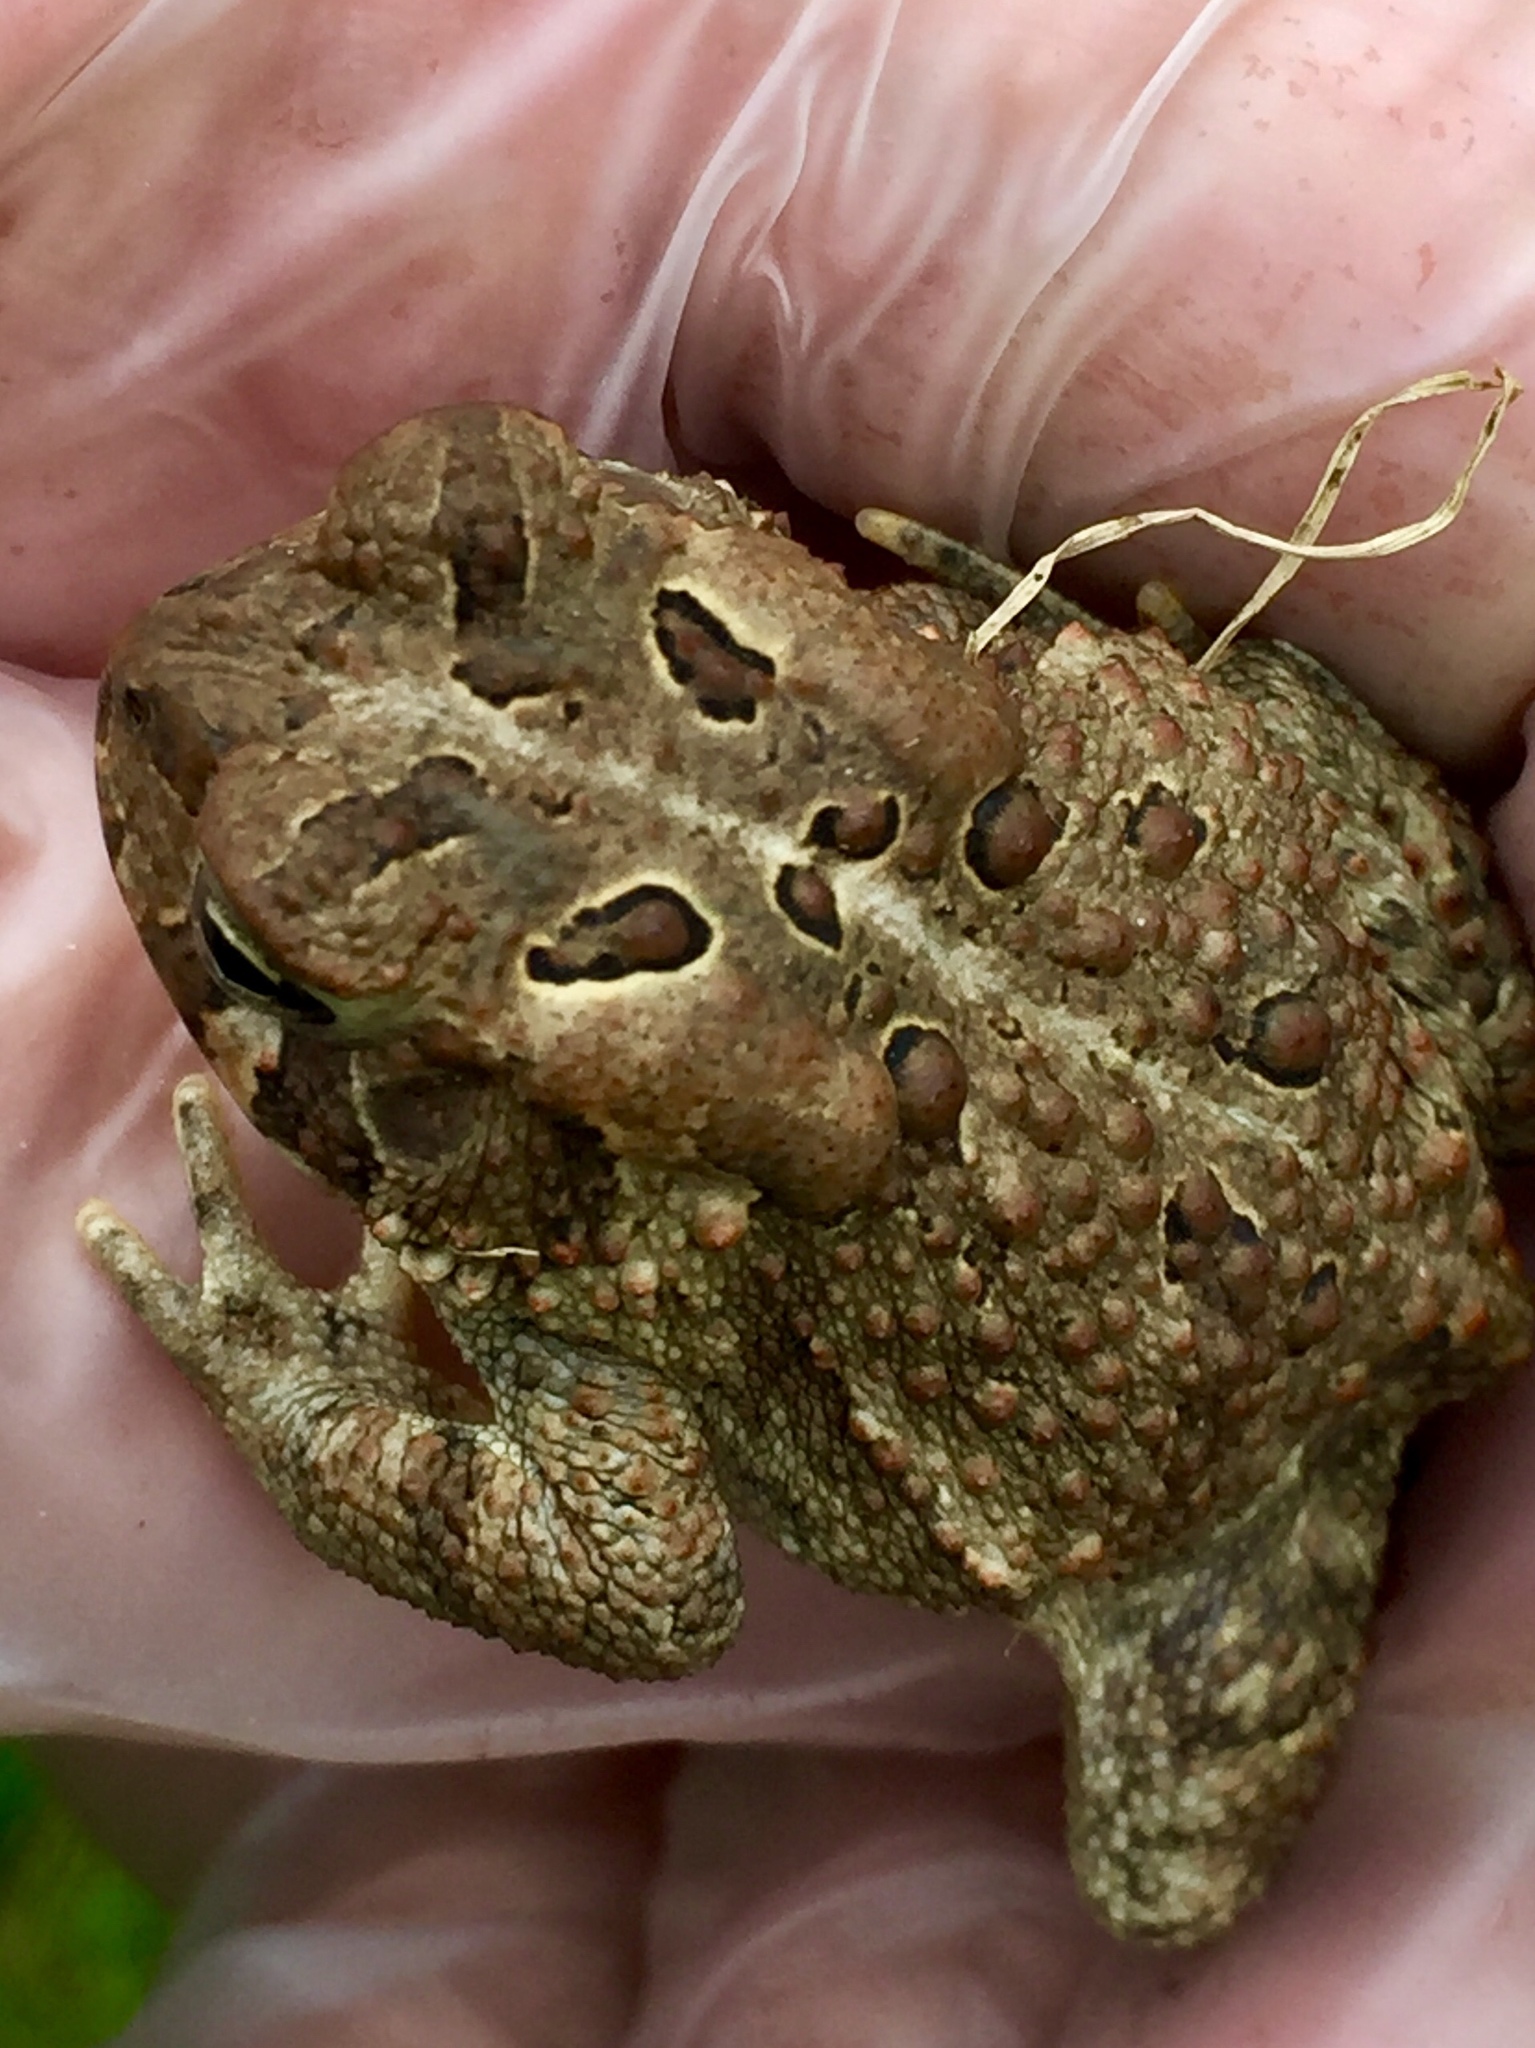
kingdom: Animalia
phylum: Chordata
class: Amphibia
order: Anura
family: Bufonidae
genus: Anaxyrus
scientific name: Anaxyrus americanus
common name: American toad
